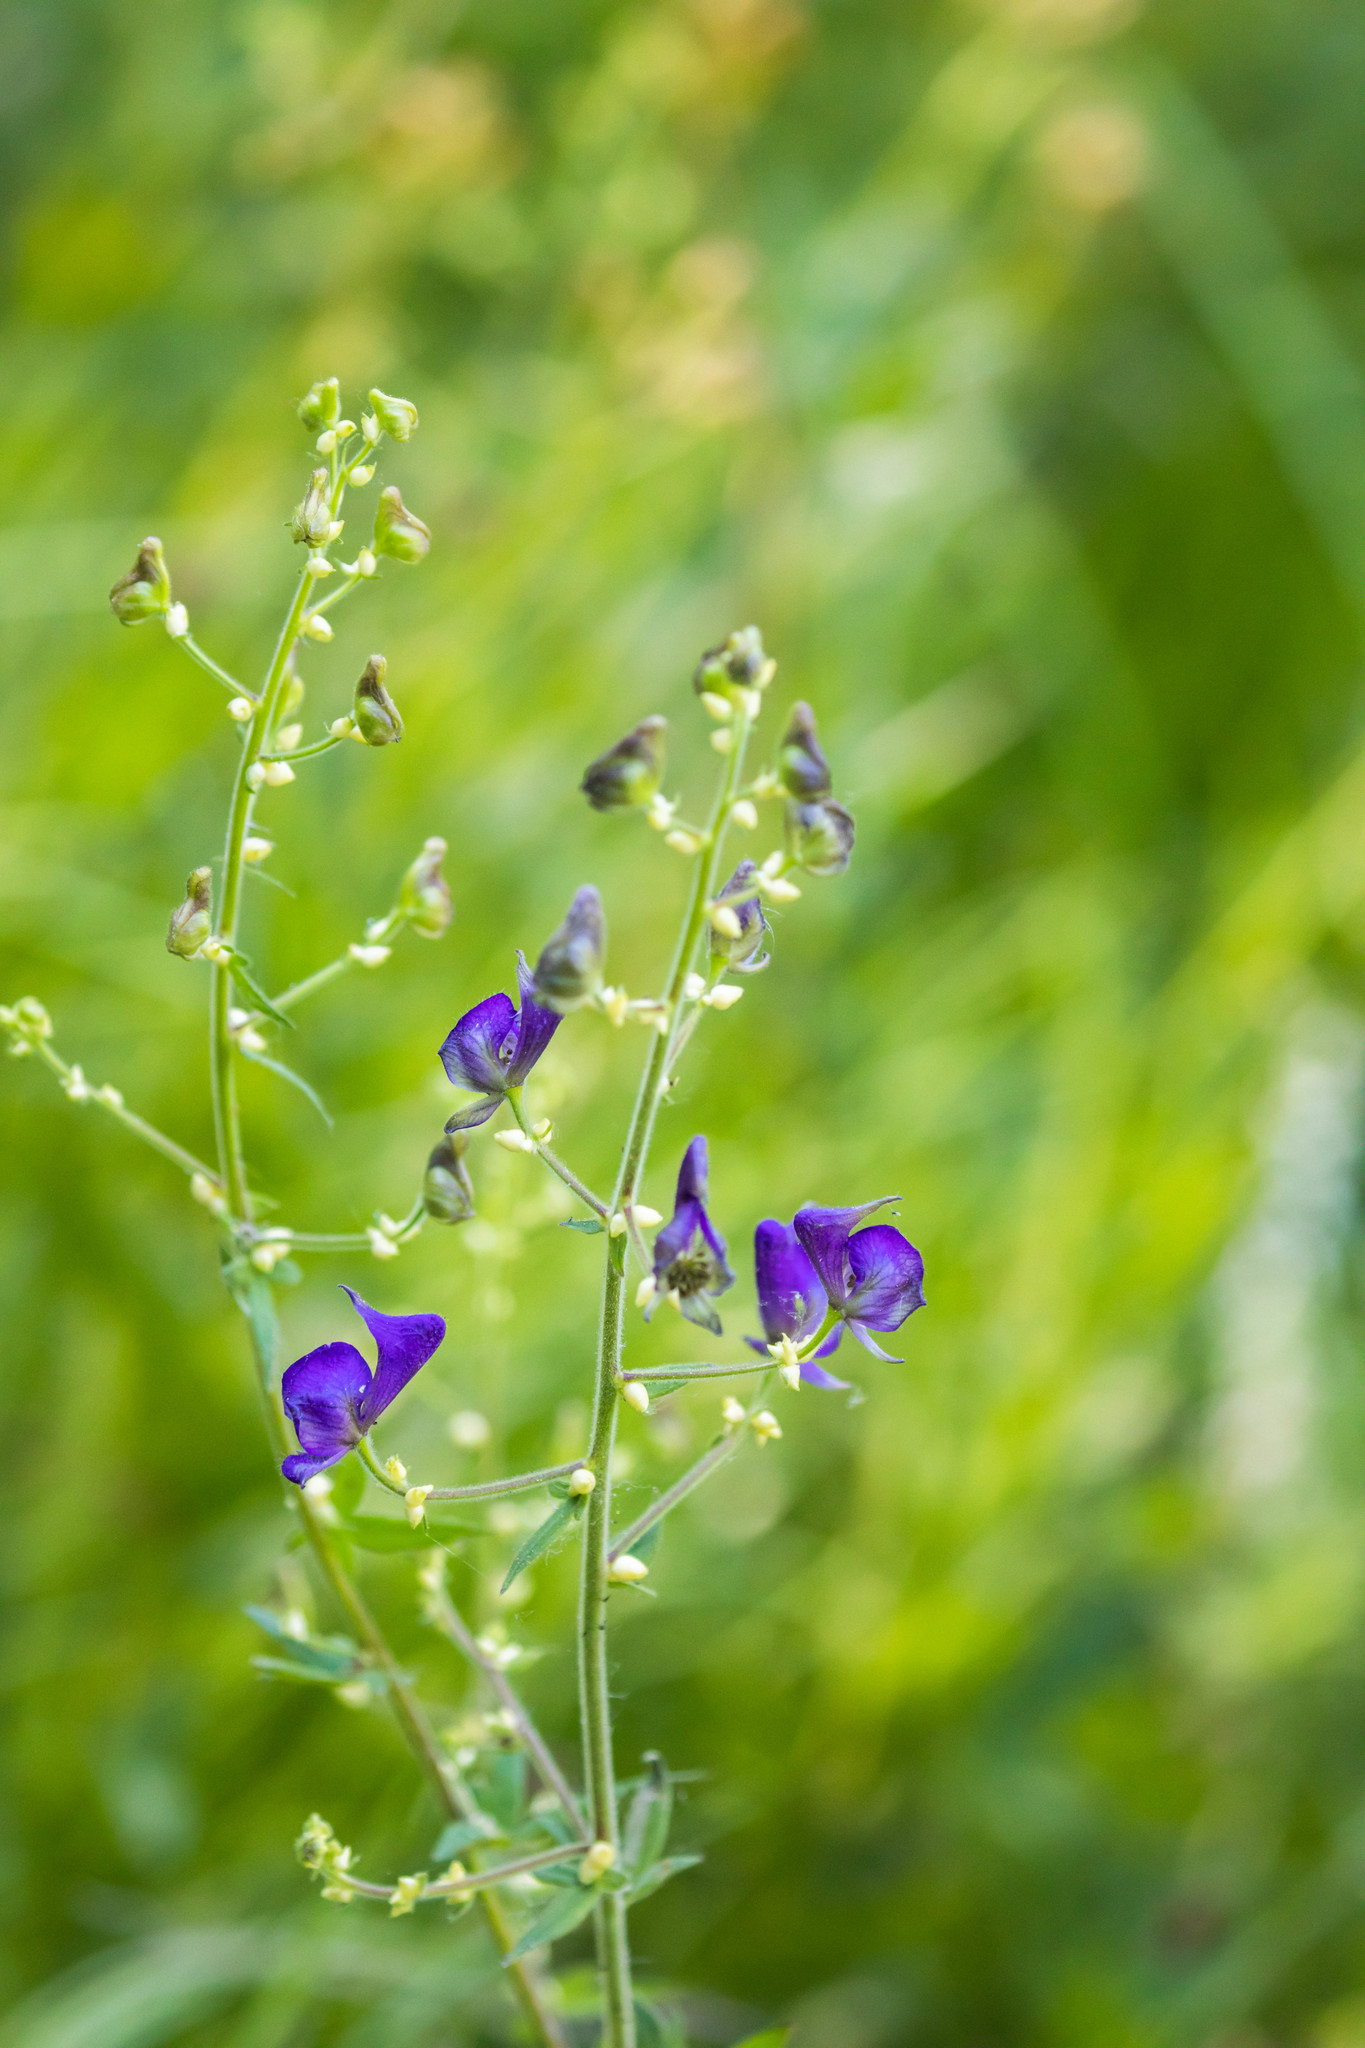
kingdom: Plantae
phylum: Tracheophyta
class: Magnoliopsida
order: Ranunculales
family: Ranunculaceae
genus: Aconitum
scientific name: Aconitum columbianum
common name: Columbia aconite
